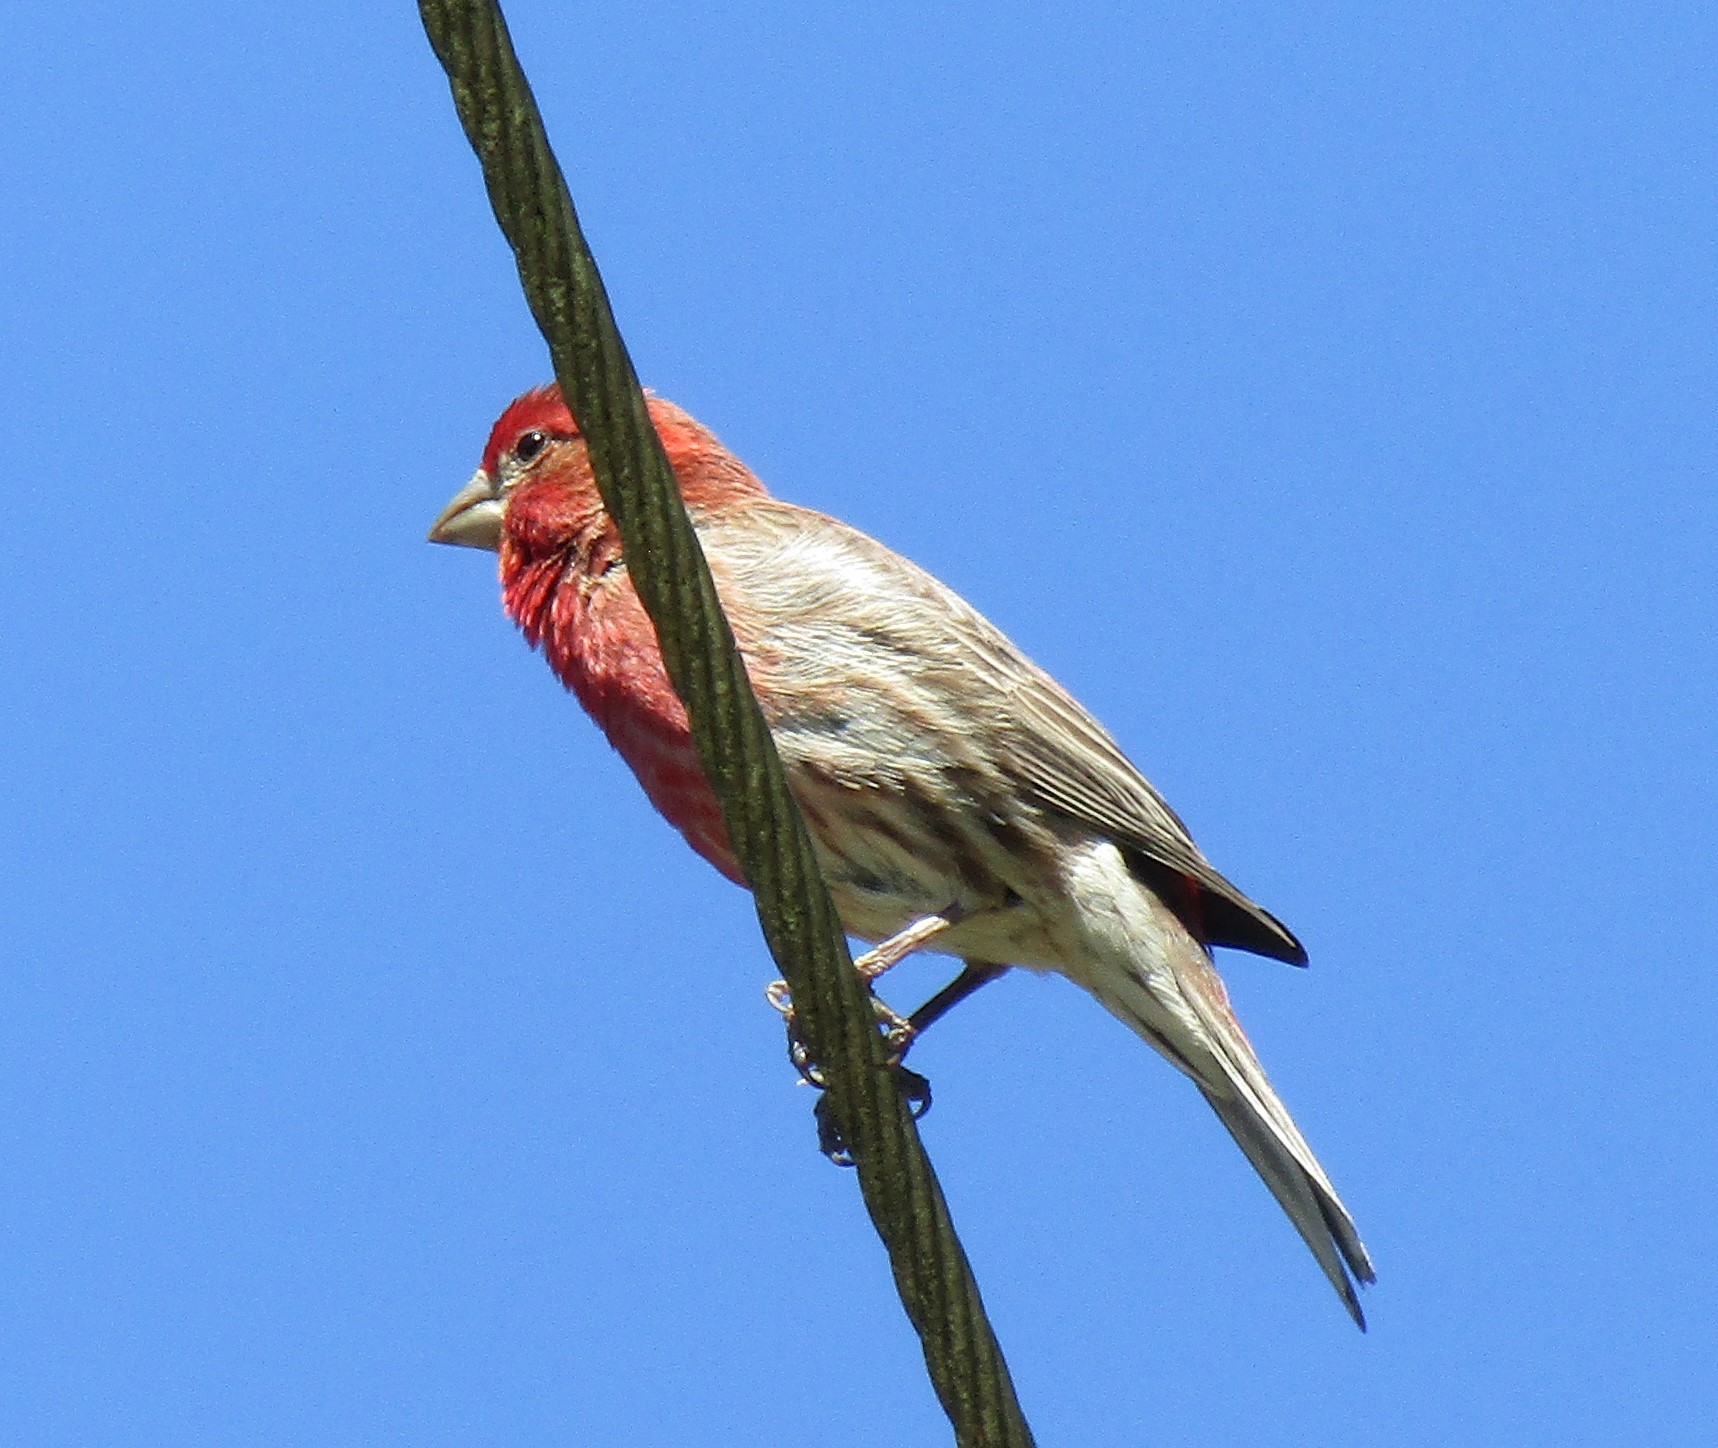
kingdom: Animalia
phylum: Chordata
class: Aves
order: Passeriformes
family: Fringillidae
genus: Haemorhous
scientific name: Haemorhous mexicanus
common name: House finch
